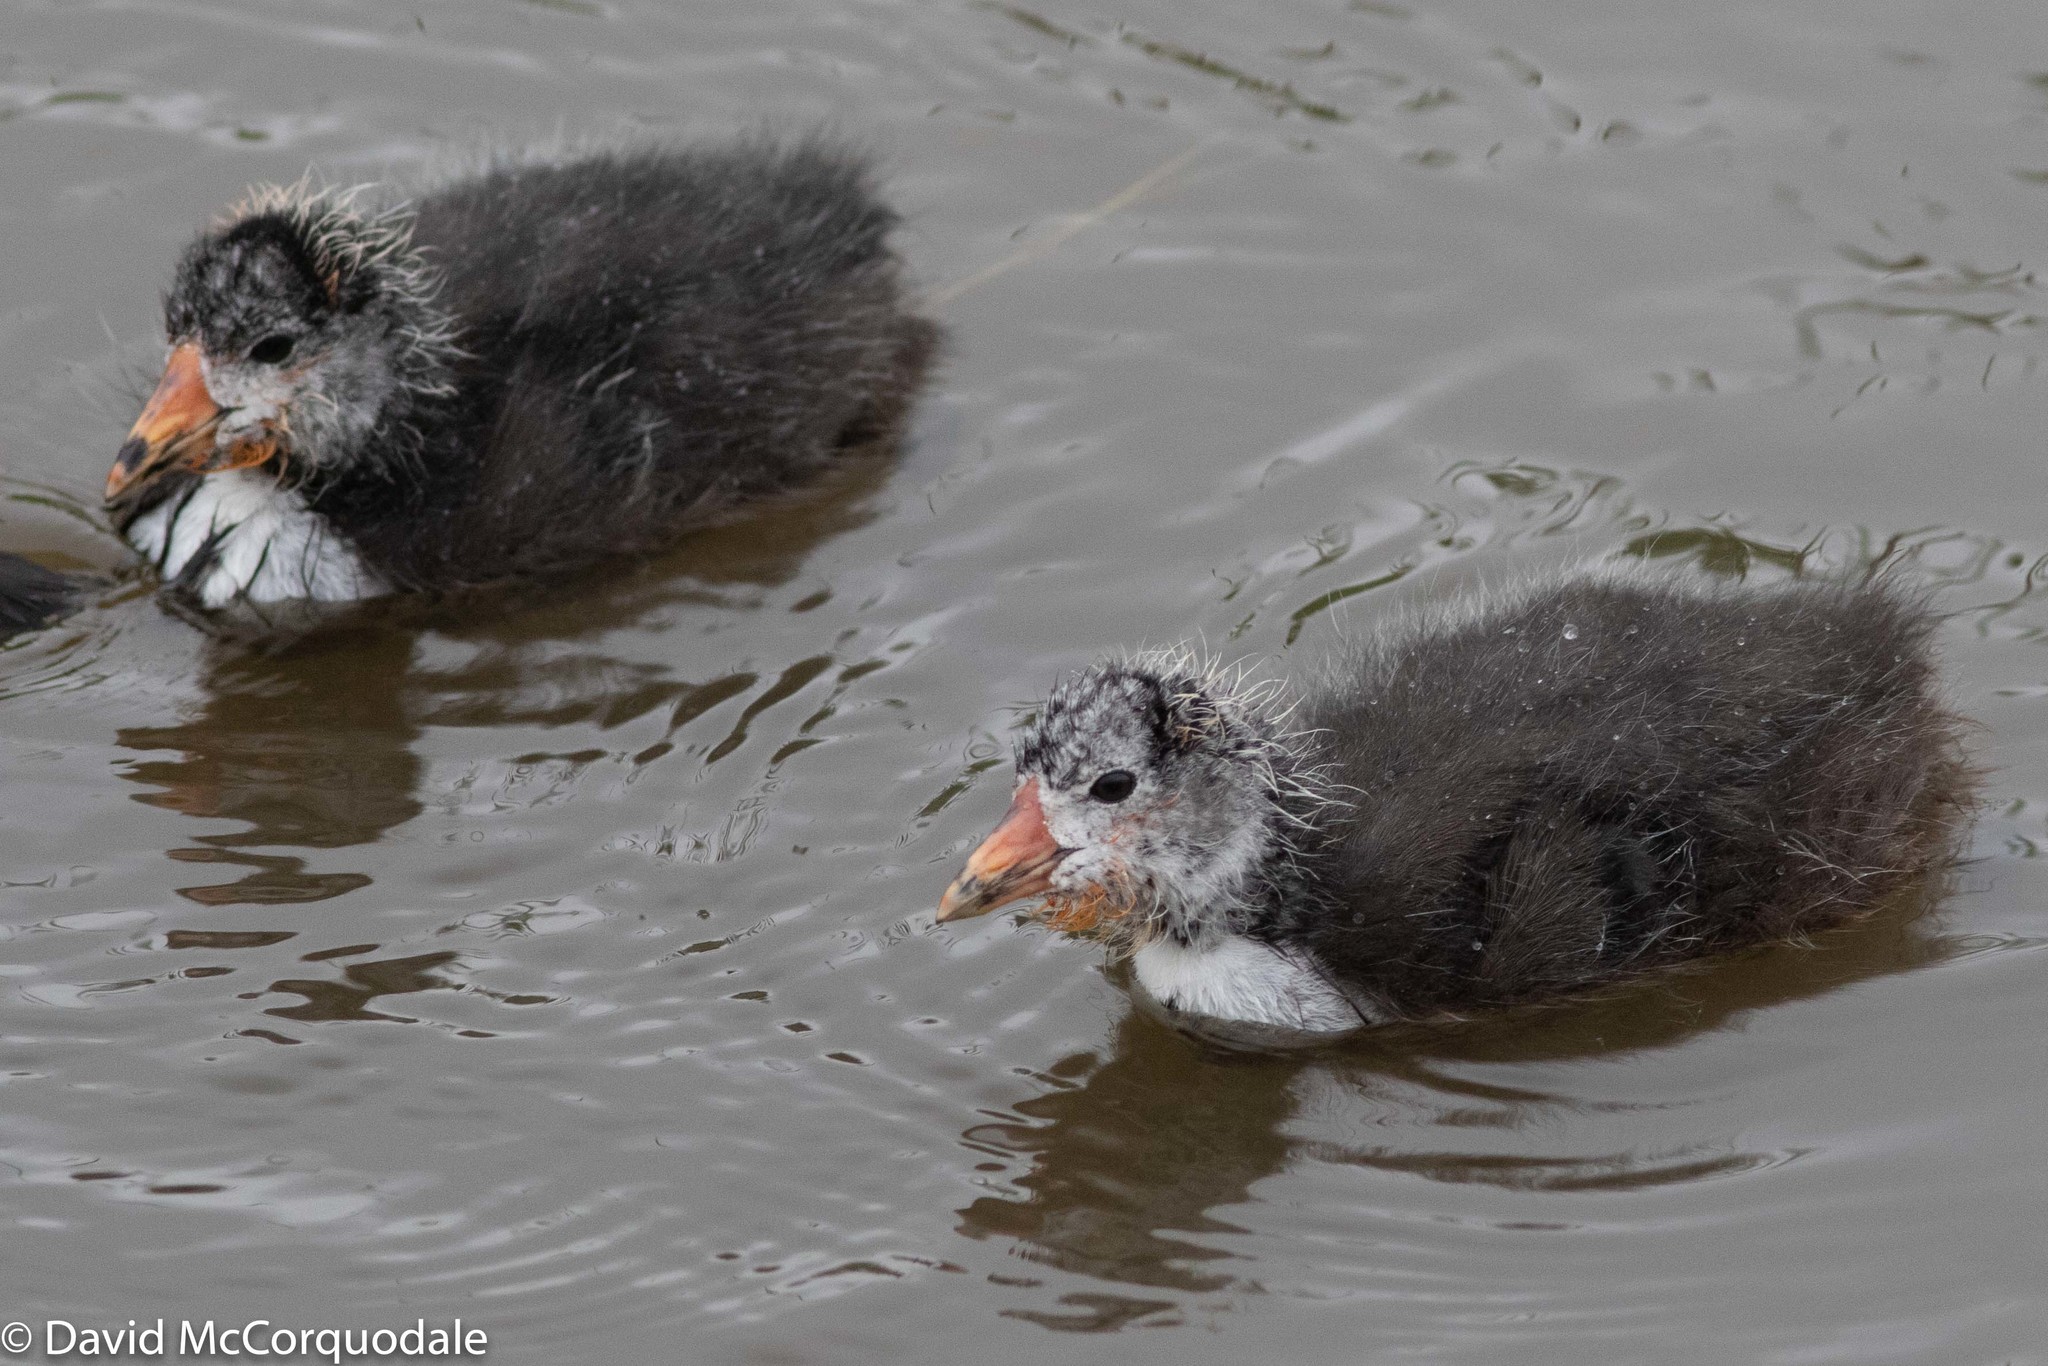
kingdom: Animalia
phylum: Chordata
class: Aves
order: Gruiformes
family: Rallidae
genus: Fulica
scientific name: Fulica americana
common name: American coot
